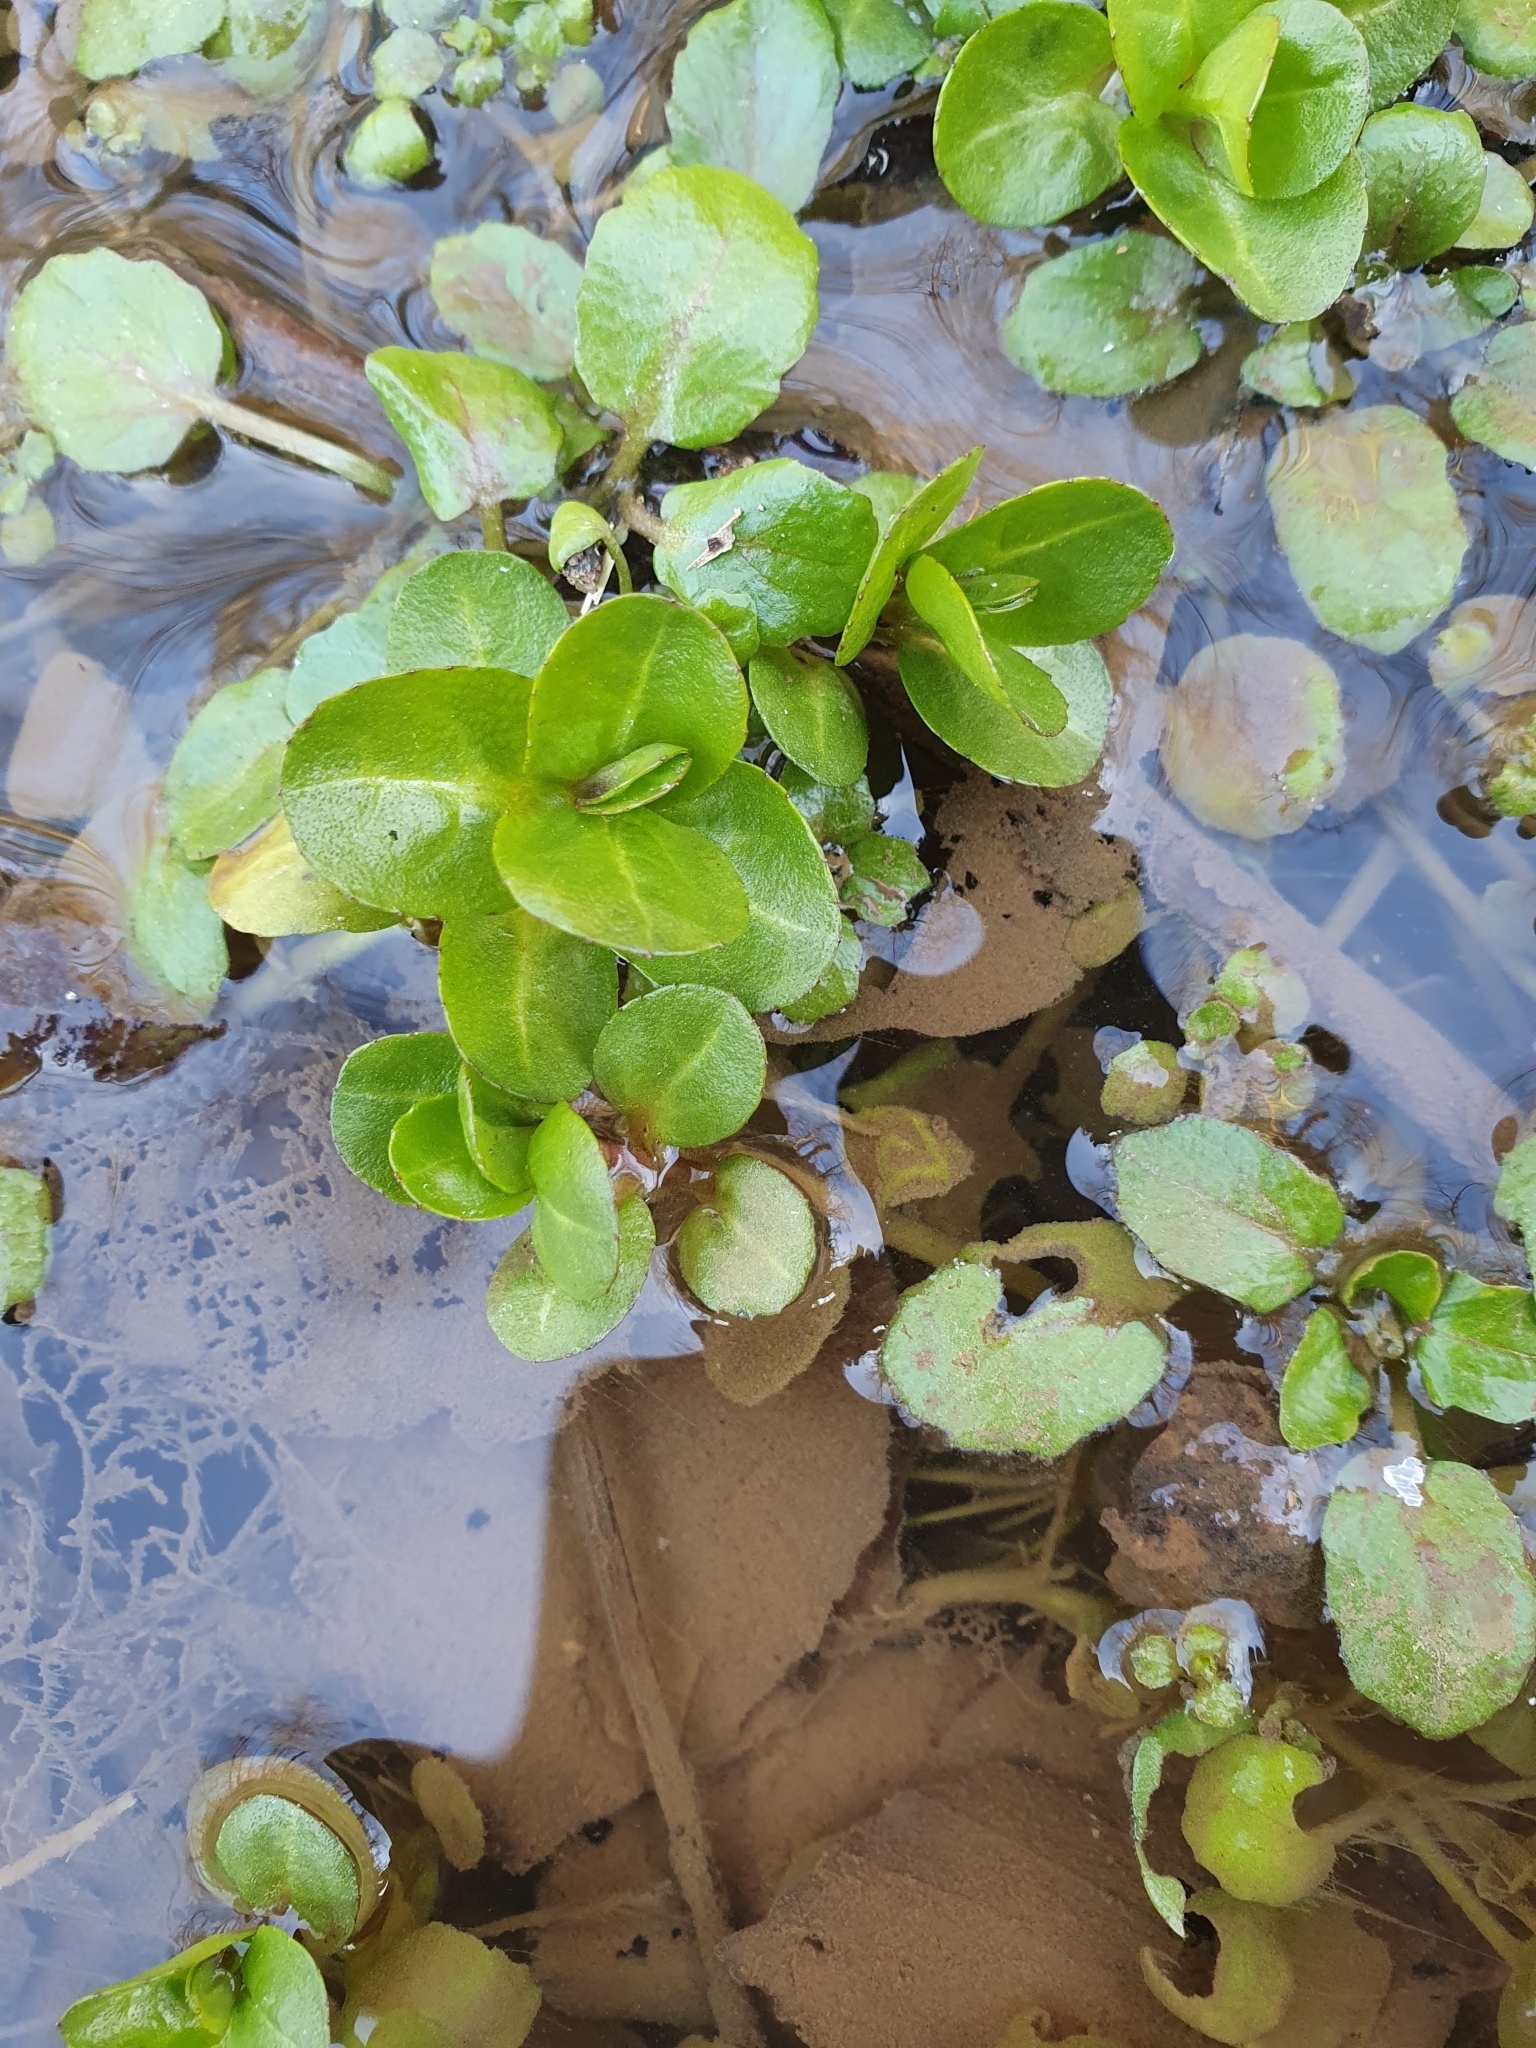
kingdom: Plantae
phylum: Tracheophyta
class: Magnoliopsida
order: Lamiales
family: Plantaginaceae
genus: Veronica
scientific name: Veronica beccabunga
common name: Brooklime
